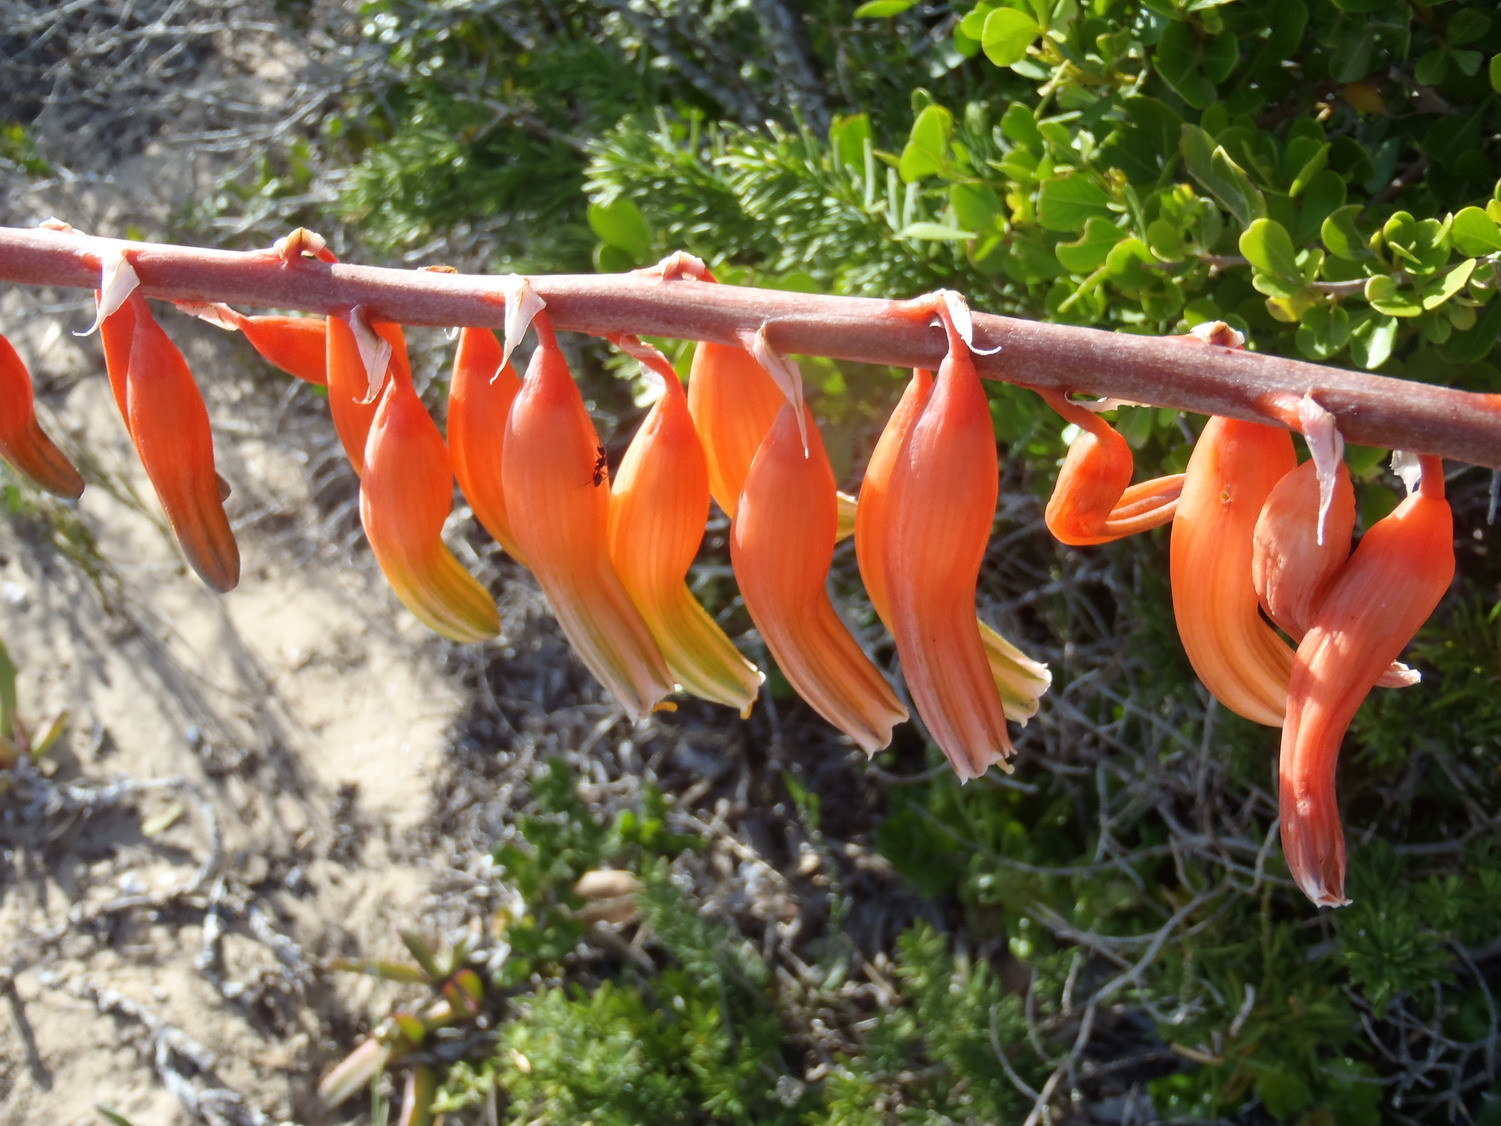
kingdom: Plantae
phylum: Tracheophyta
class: Liliopsida
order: Asparagales
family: Asphodelaceae
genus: Gasteria
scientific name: Gasteria acinacifolia
